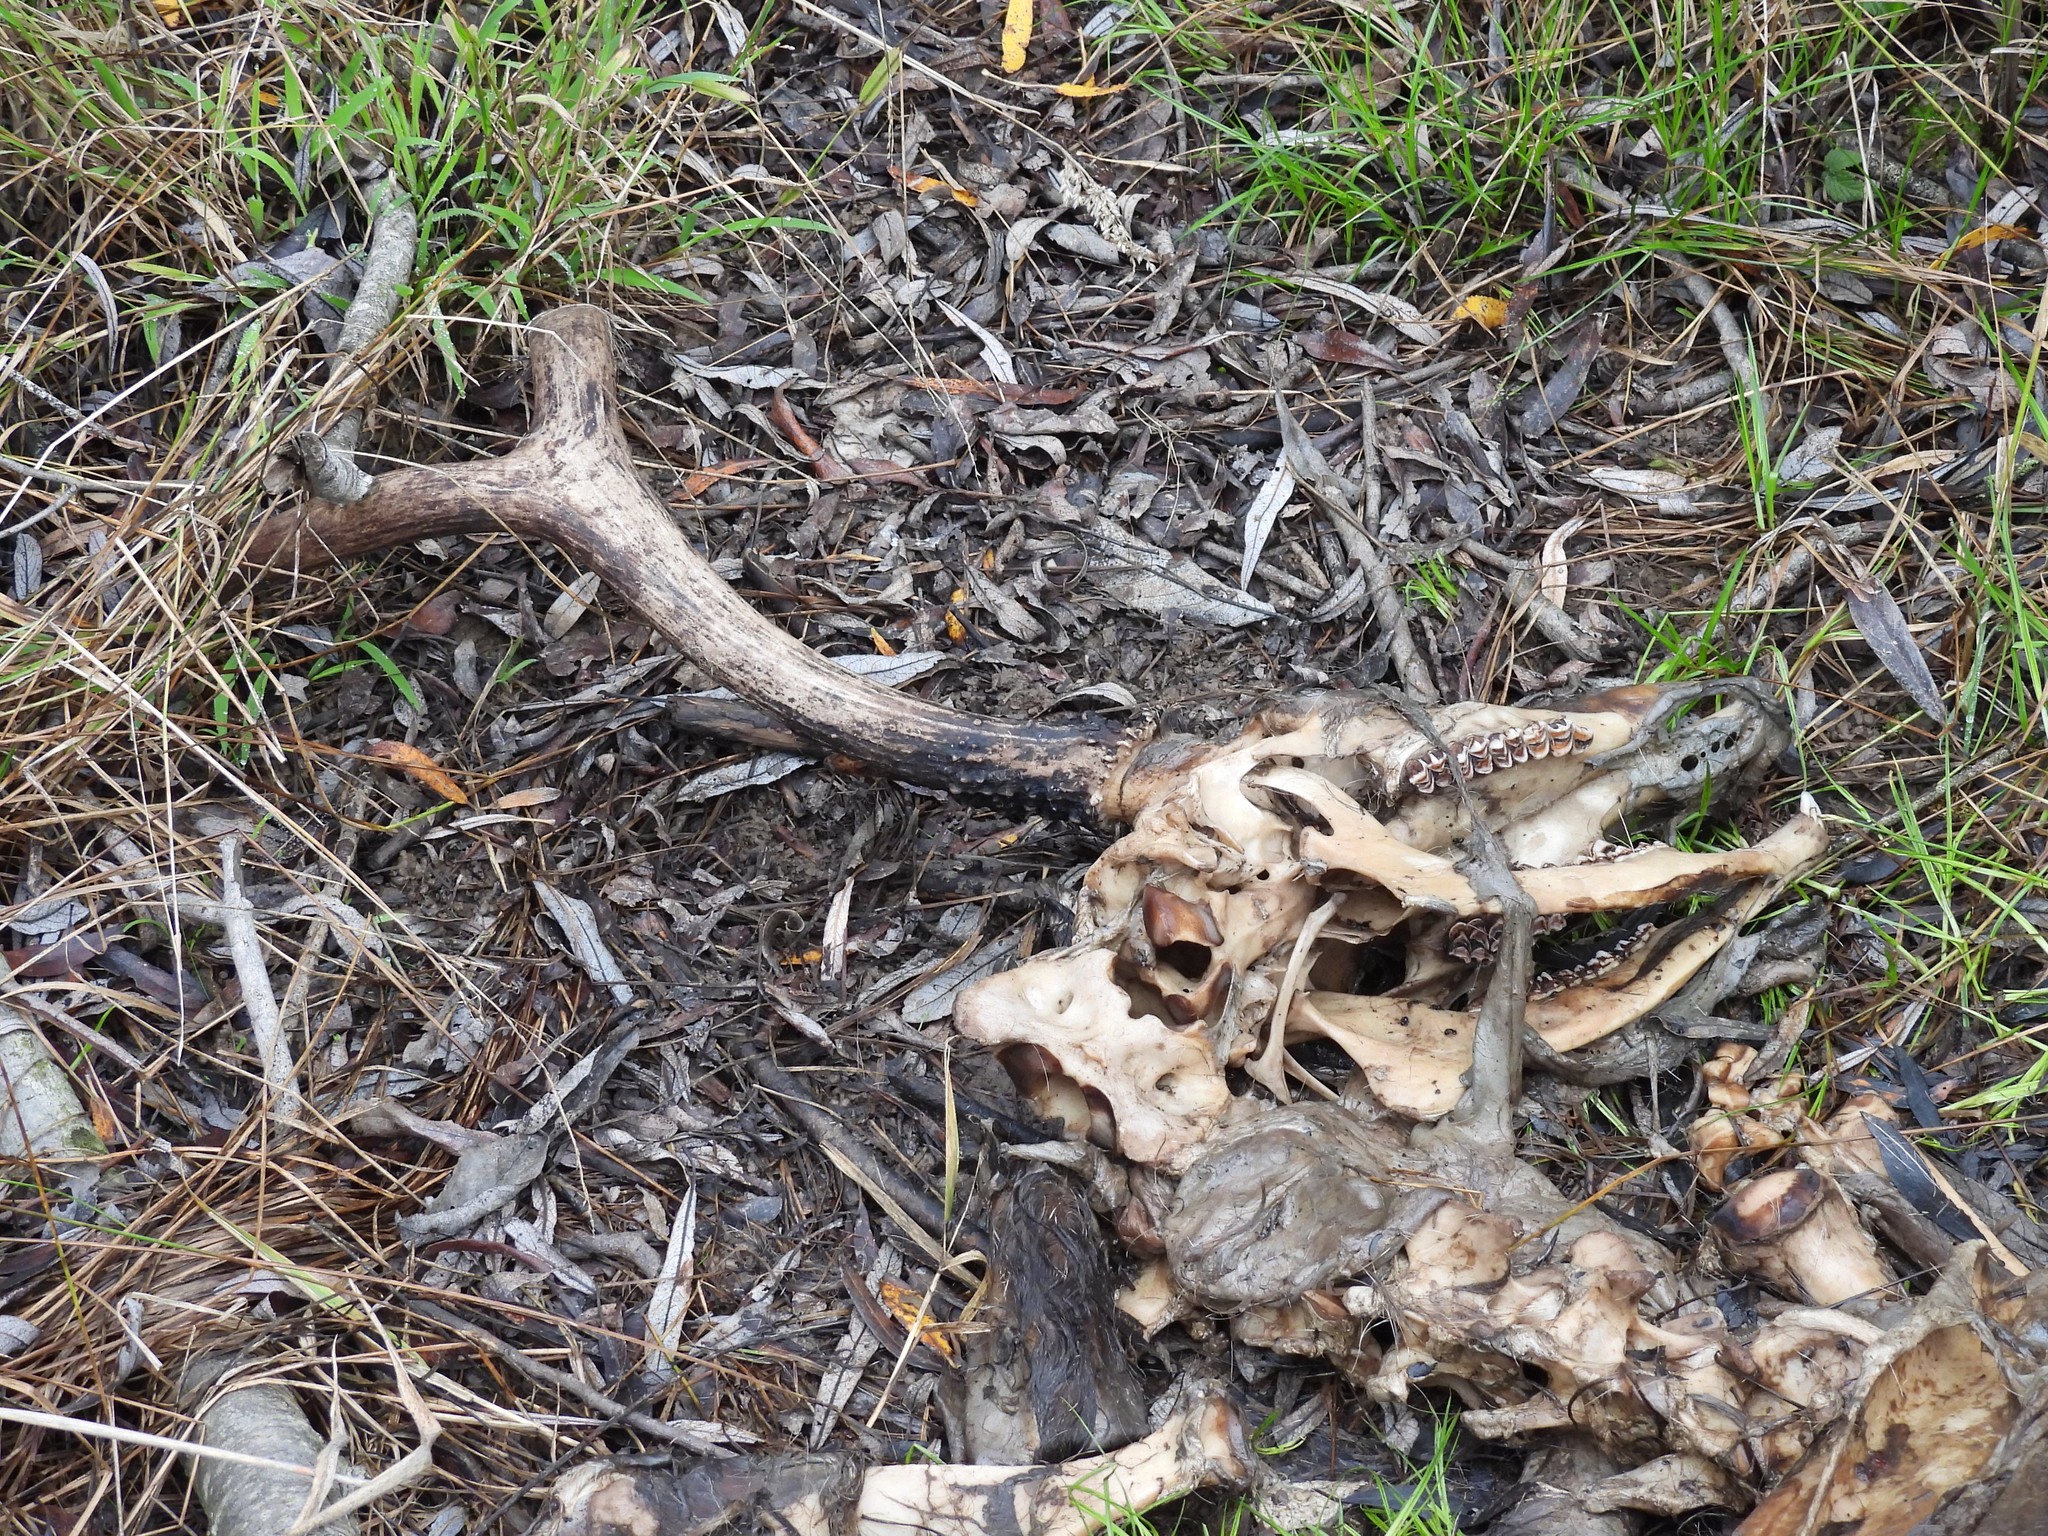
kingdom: Animalia
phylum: Chordata
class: Mammalia
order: Artiodactyla
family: Cervidae
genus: Odocoileus
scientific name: Odocoileus hemionus
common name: Mule deer
